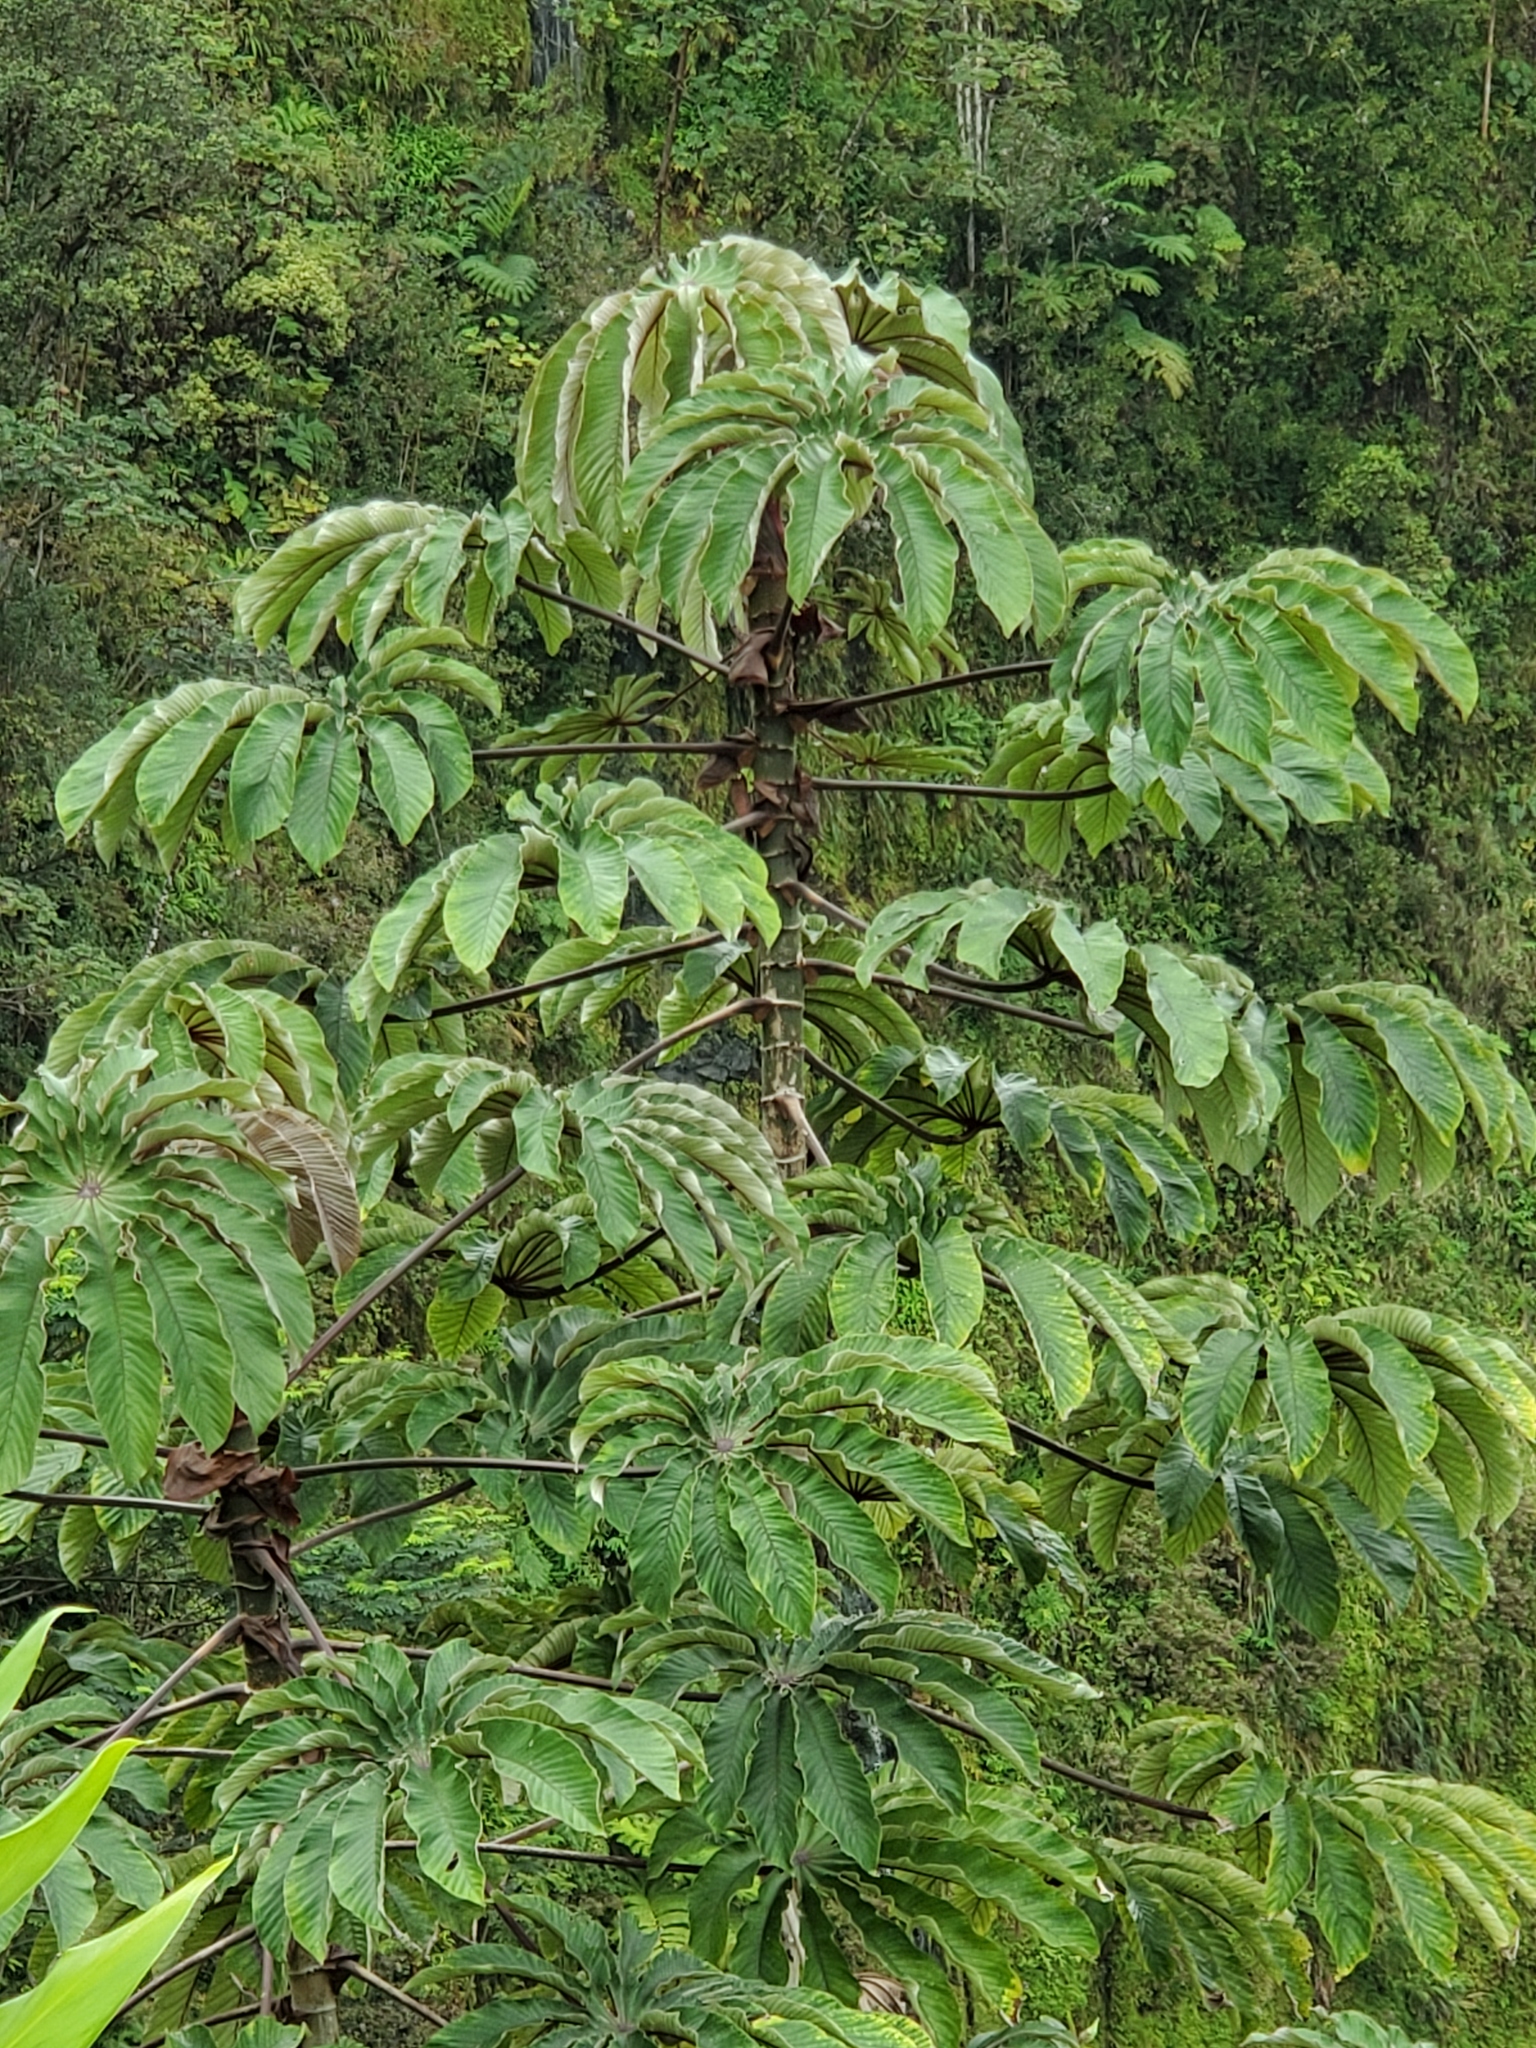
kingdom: Plantae
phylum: Tracheophyta
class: Magnoliopsida
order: Rosales
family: Urticaceae
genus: Cecropia
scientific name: Cecropia obtusifolia
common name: Trumpet tree
